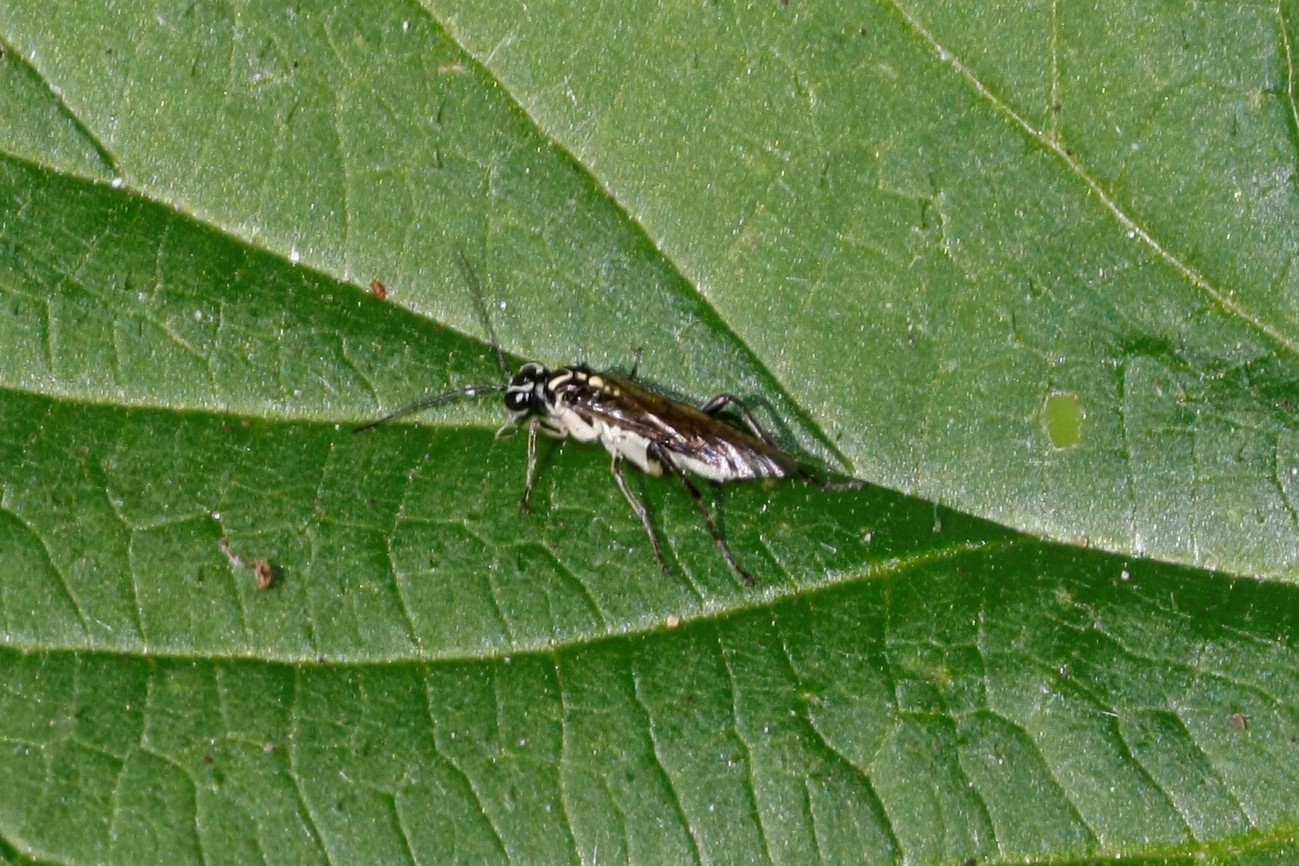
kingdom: Animalia
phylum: Arthropoda
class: Insecta
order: Hymenoptera
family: Tenthredinidae
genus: Pachyprotasis
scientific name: Pachyprotasis rapae
